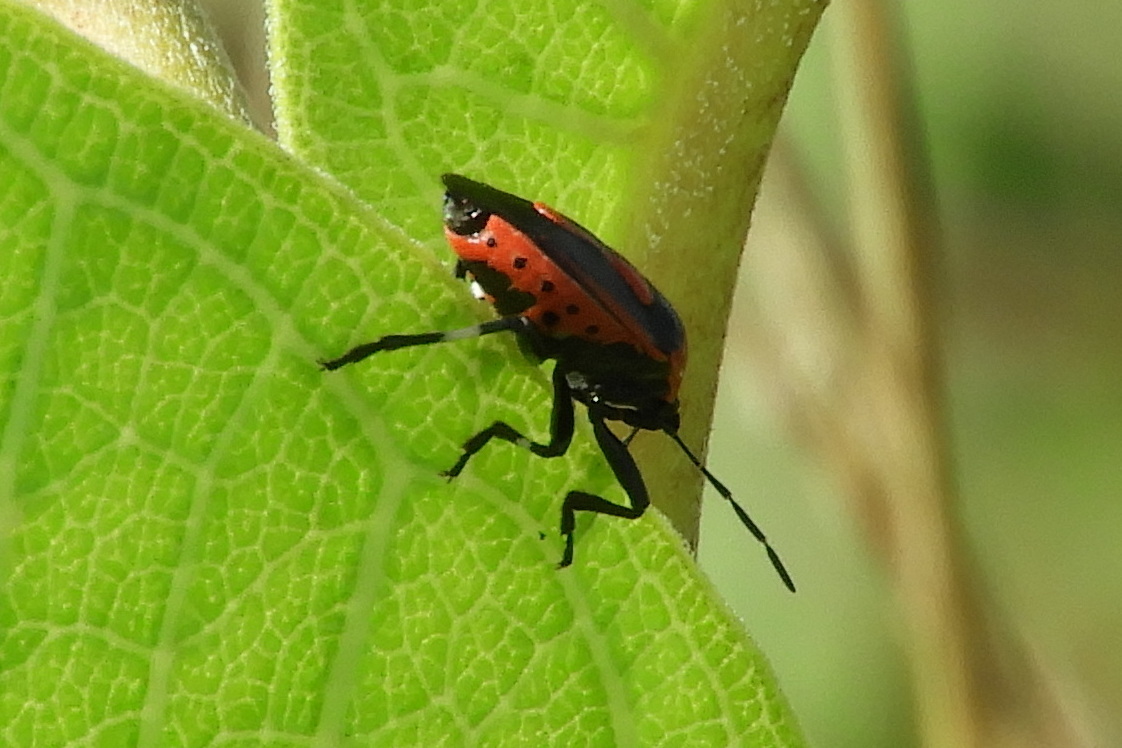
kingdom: Animalia
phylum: Arthropoda
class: Insecta
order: Hemiptera
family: Pentatomidae
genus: Perillus
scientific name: Perillus bioculatus
